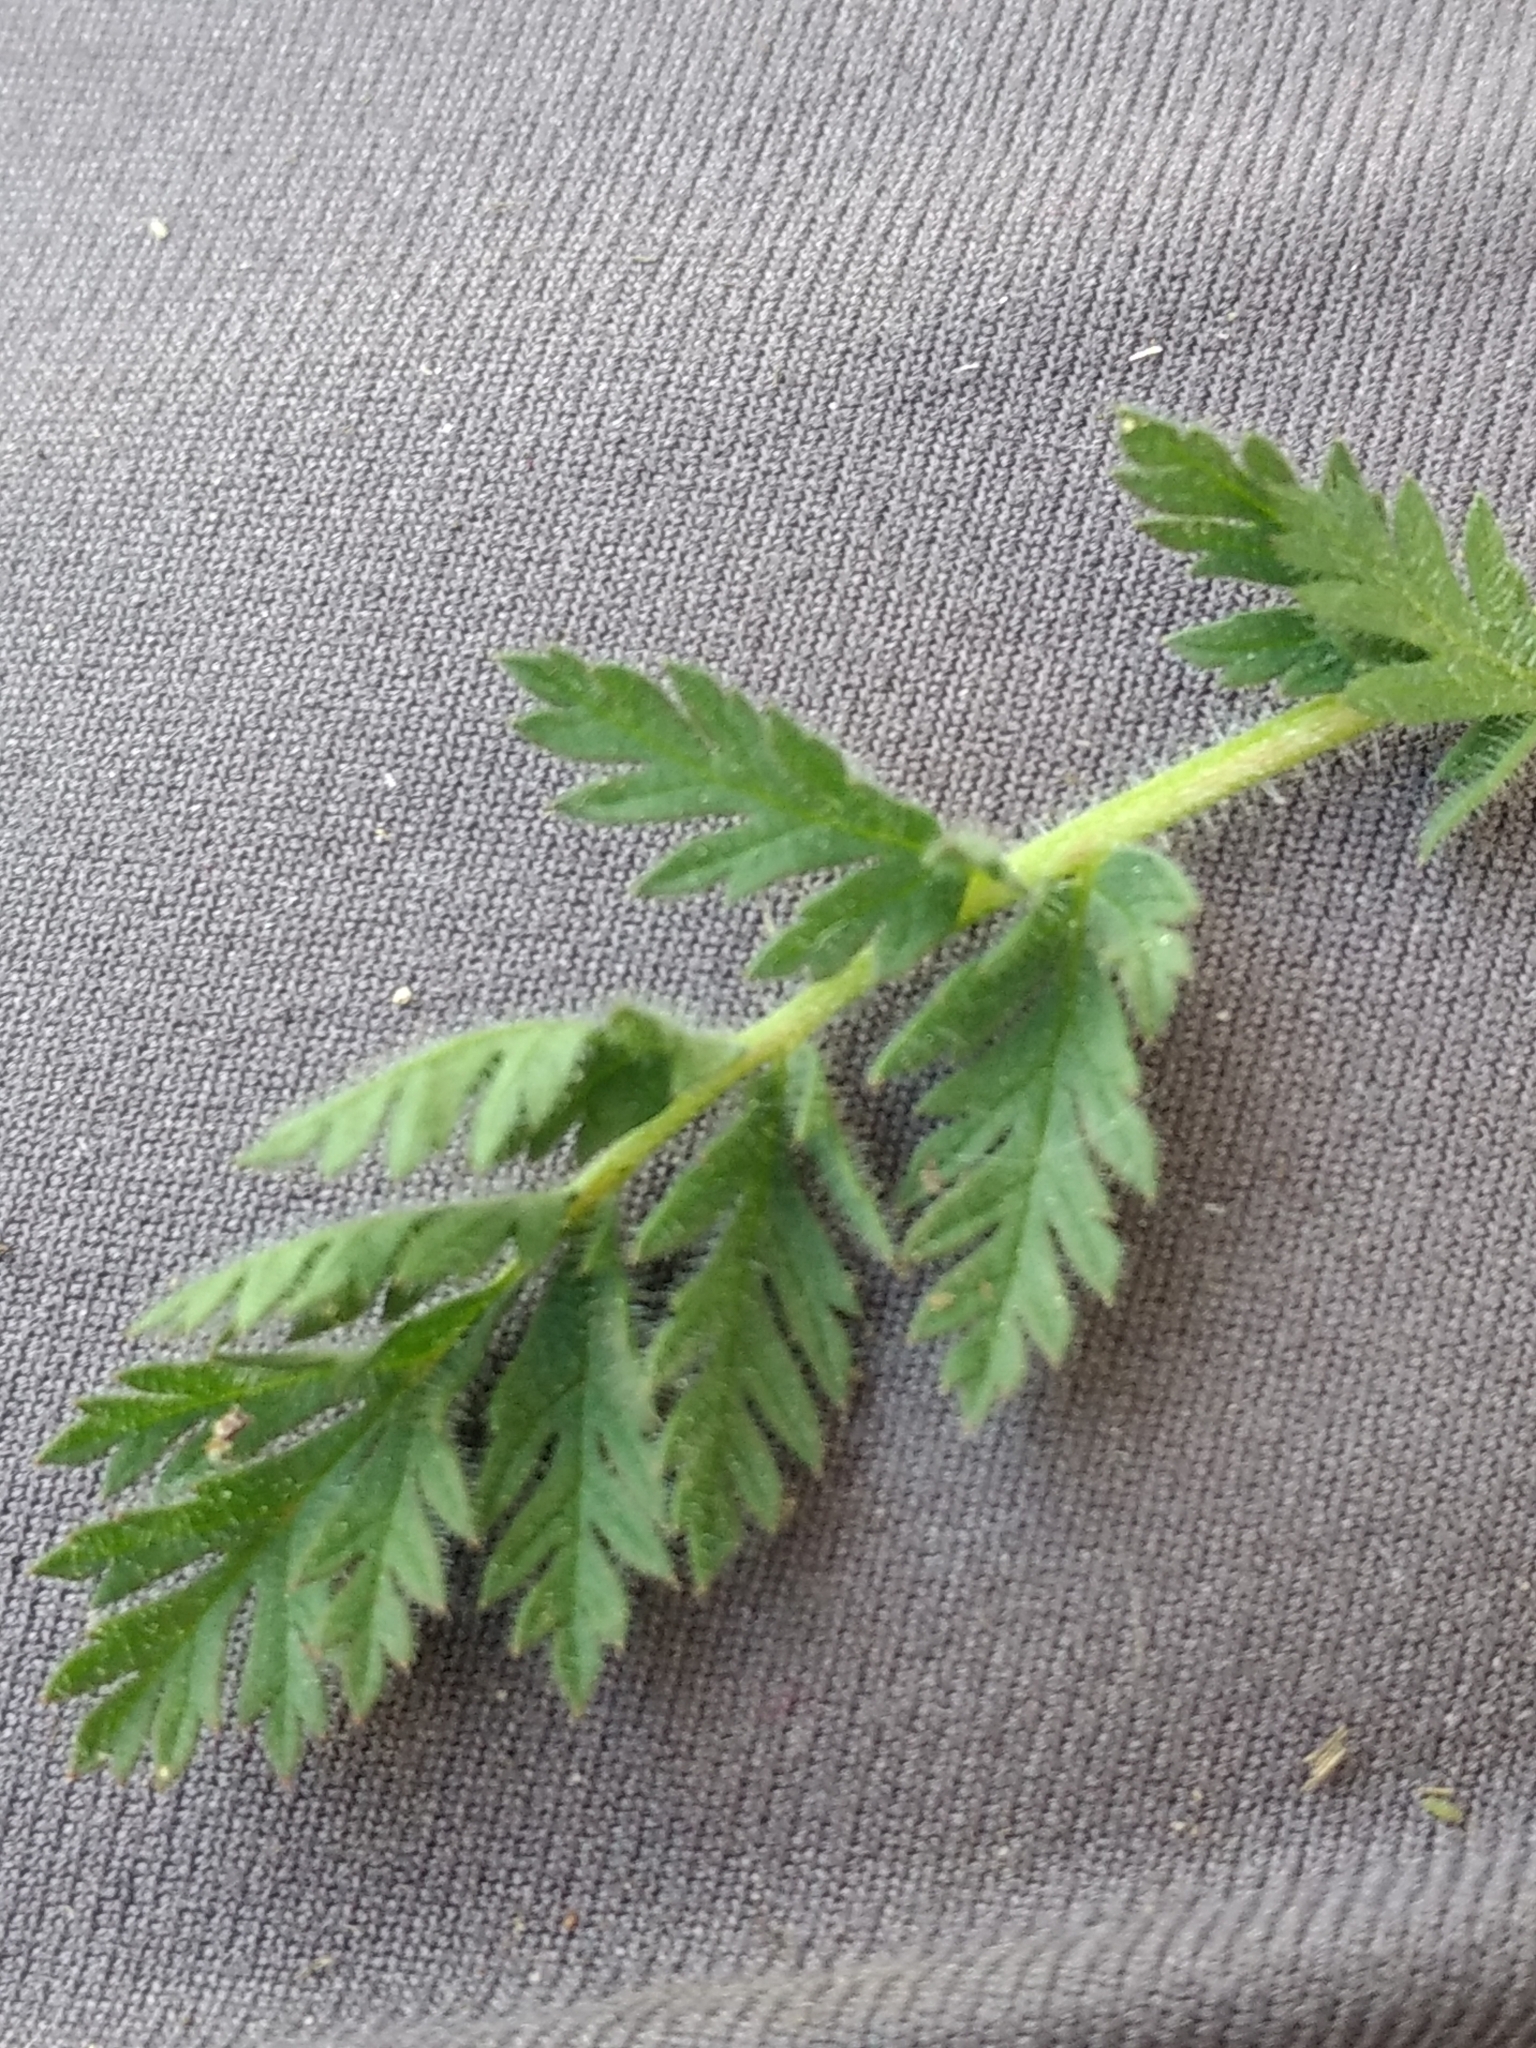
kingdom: Plantae
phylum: Tracheophyta
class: Magnoliopsida
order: Geraniales
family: Geraniaceae
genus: Erodium
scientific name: Erodium cicutarium
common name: Common stork's-bill
